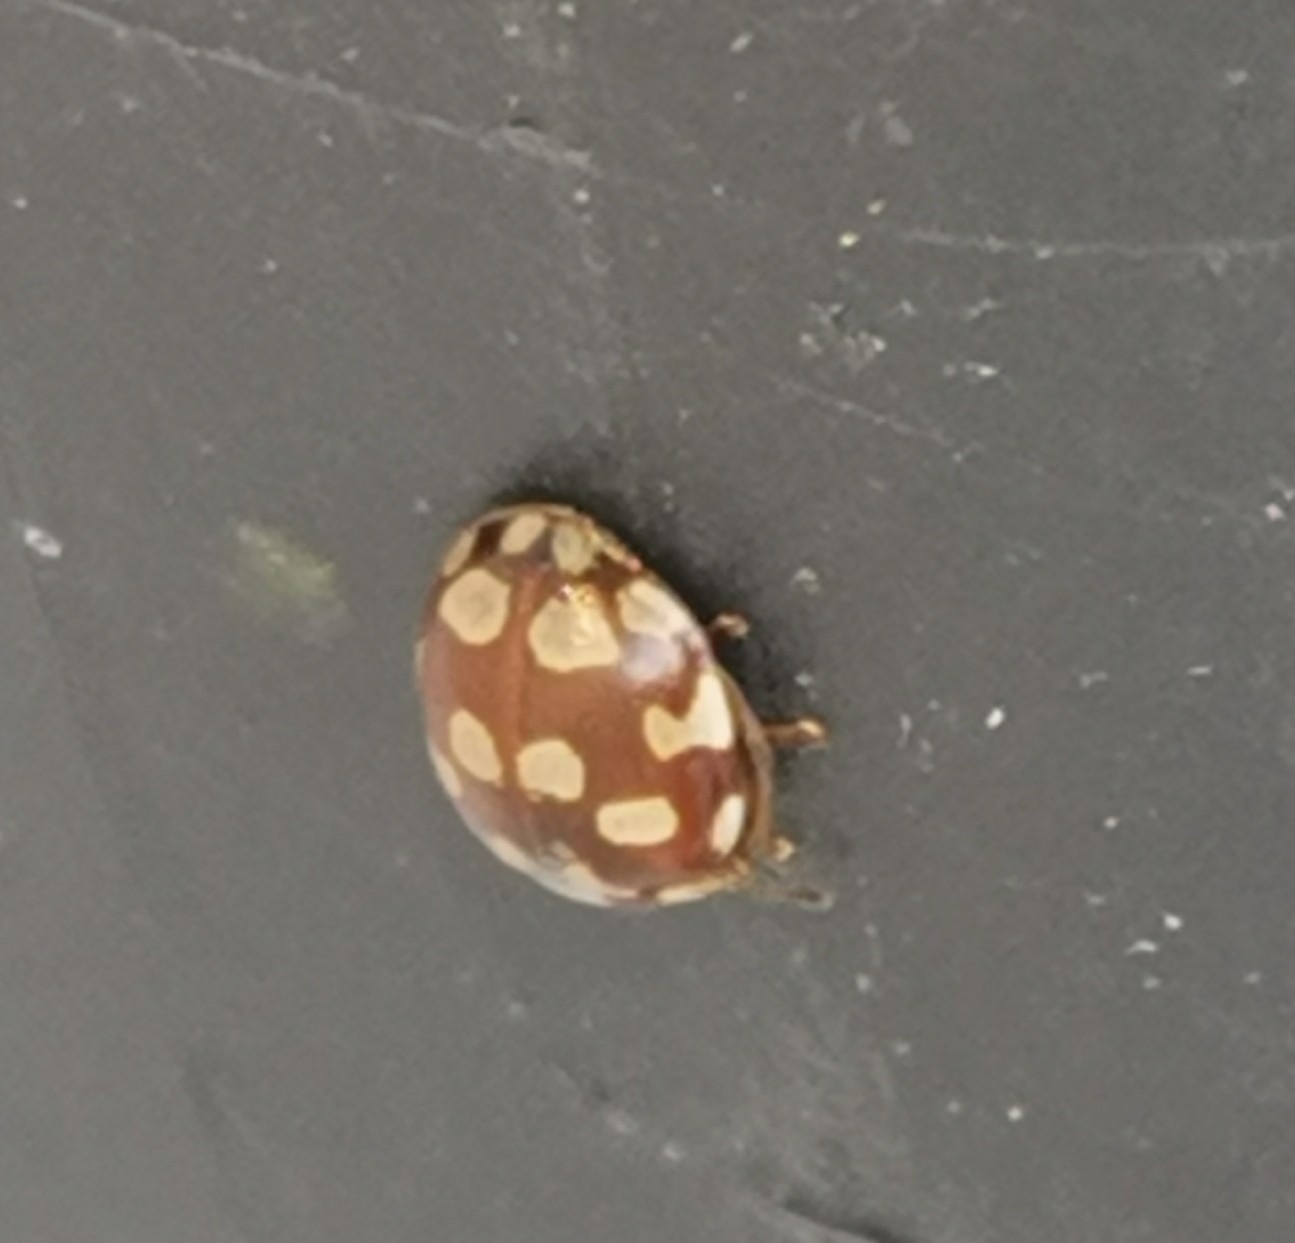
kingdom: Animalia
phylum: Arthropoda
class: Insecta
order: Coleoptera
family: Coccinellidae
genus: Myrrha
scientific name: Myrrha octodecimguttata
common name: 18-spot ladybird
